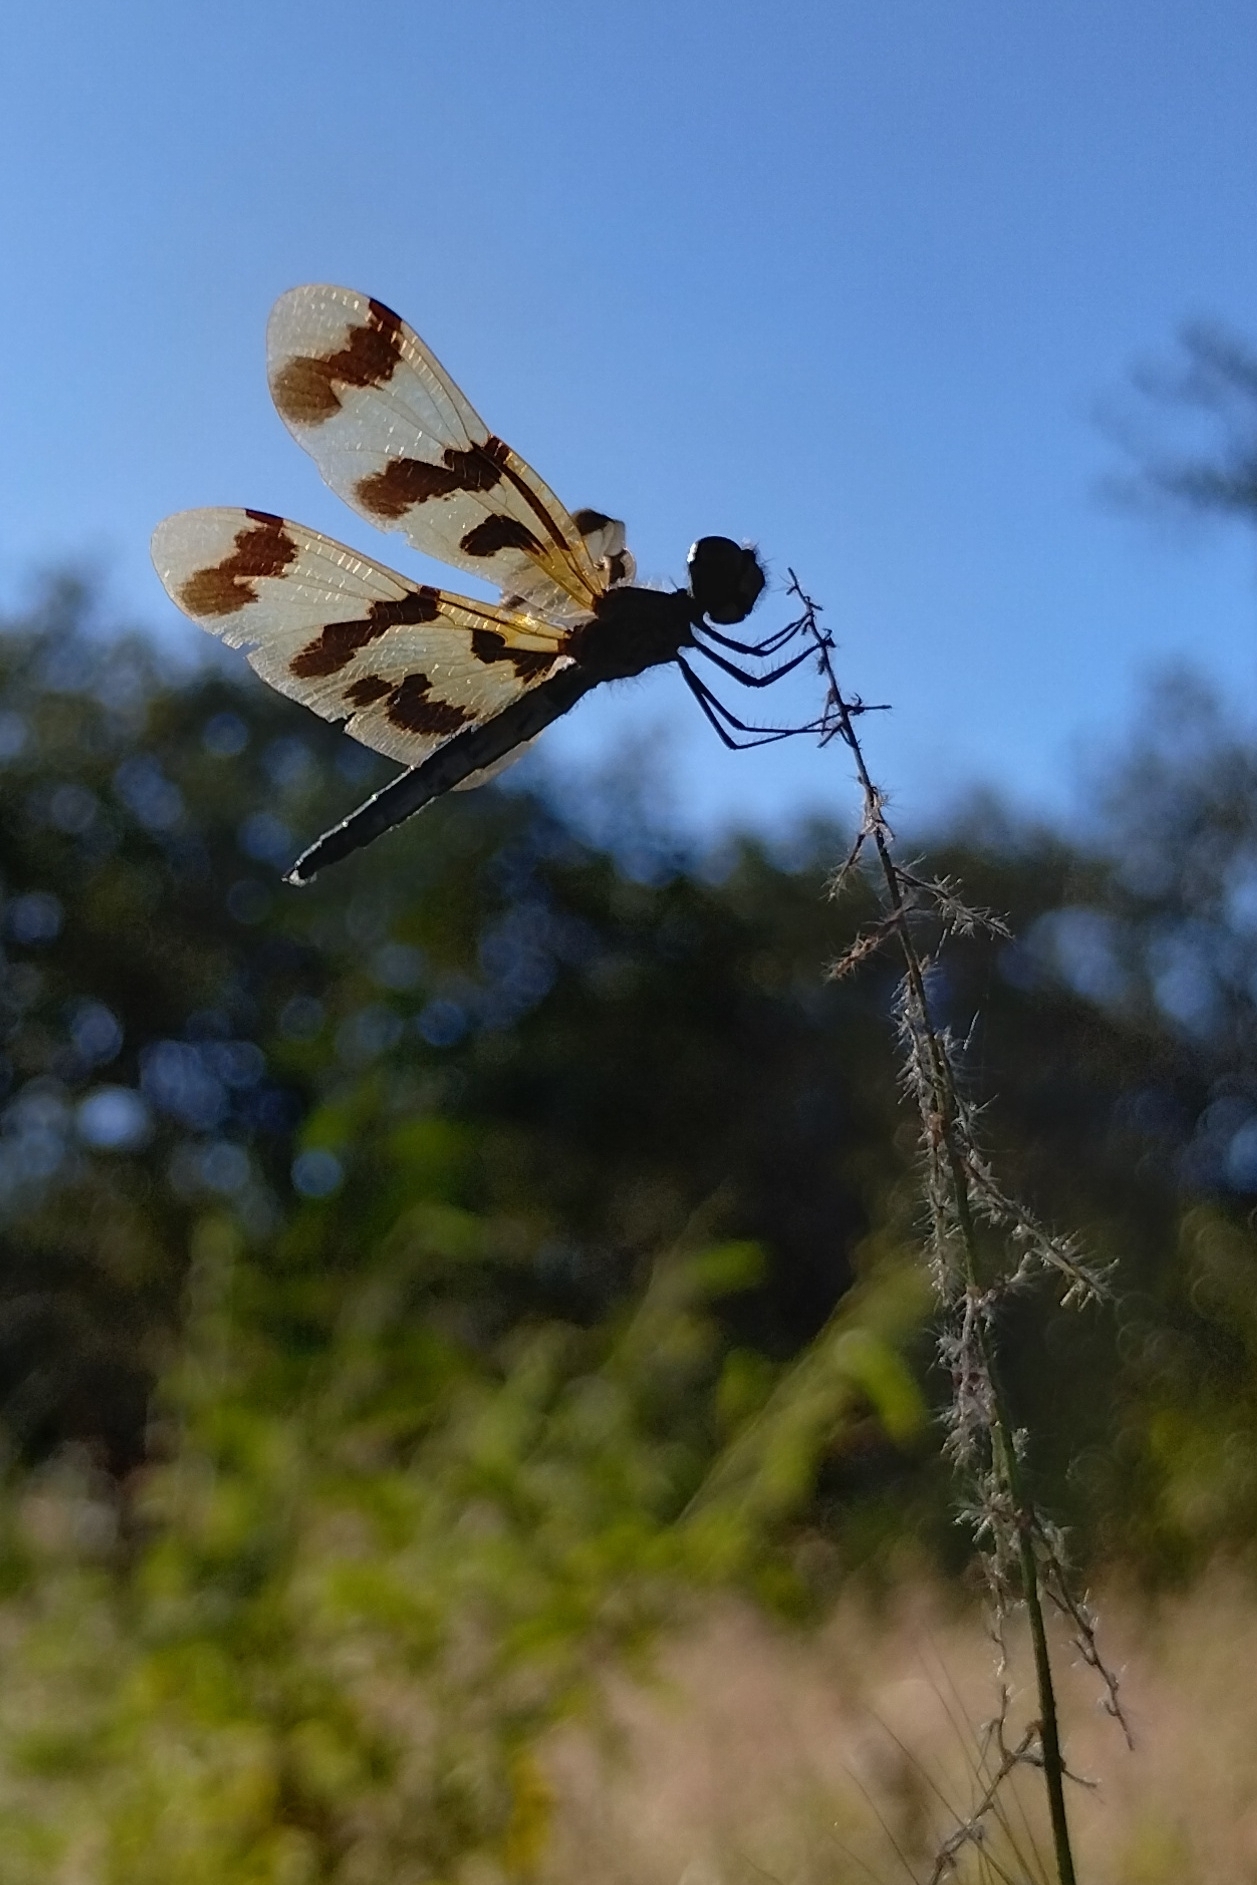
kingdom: Animalia
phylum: Arthropoda
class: Insecta
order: Odonata
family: Libellulidae
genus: Rhyothemis
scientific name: Rhyothemis graphiptera
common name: Graphic flutterer
